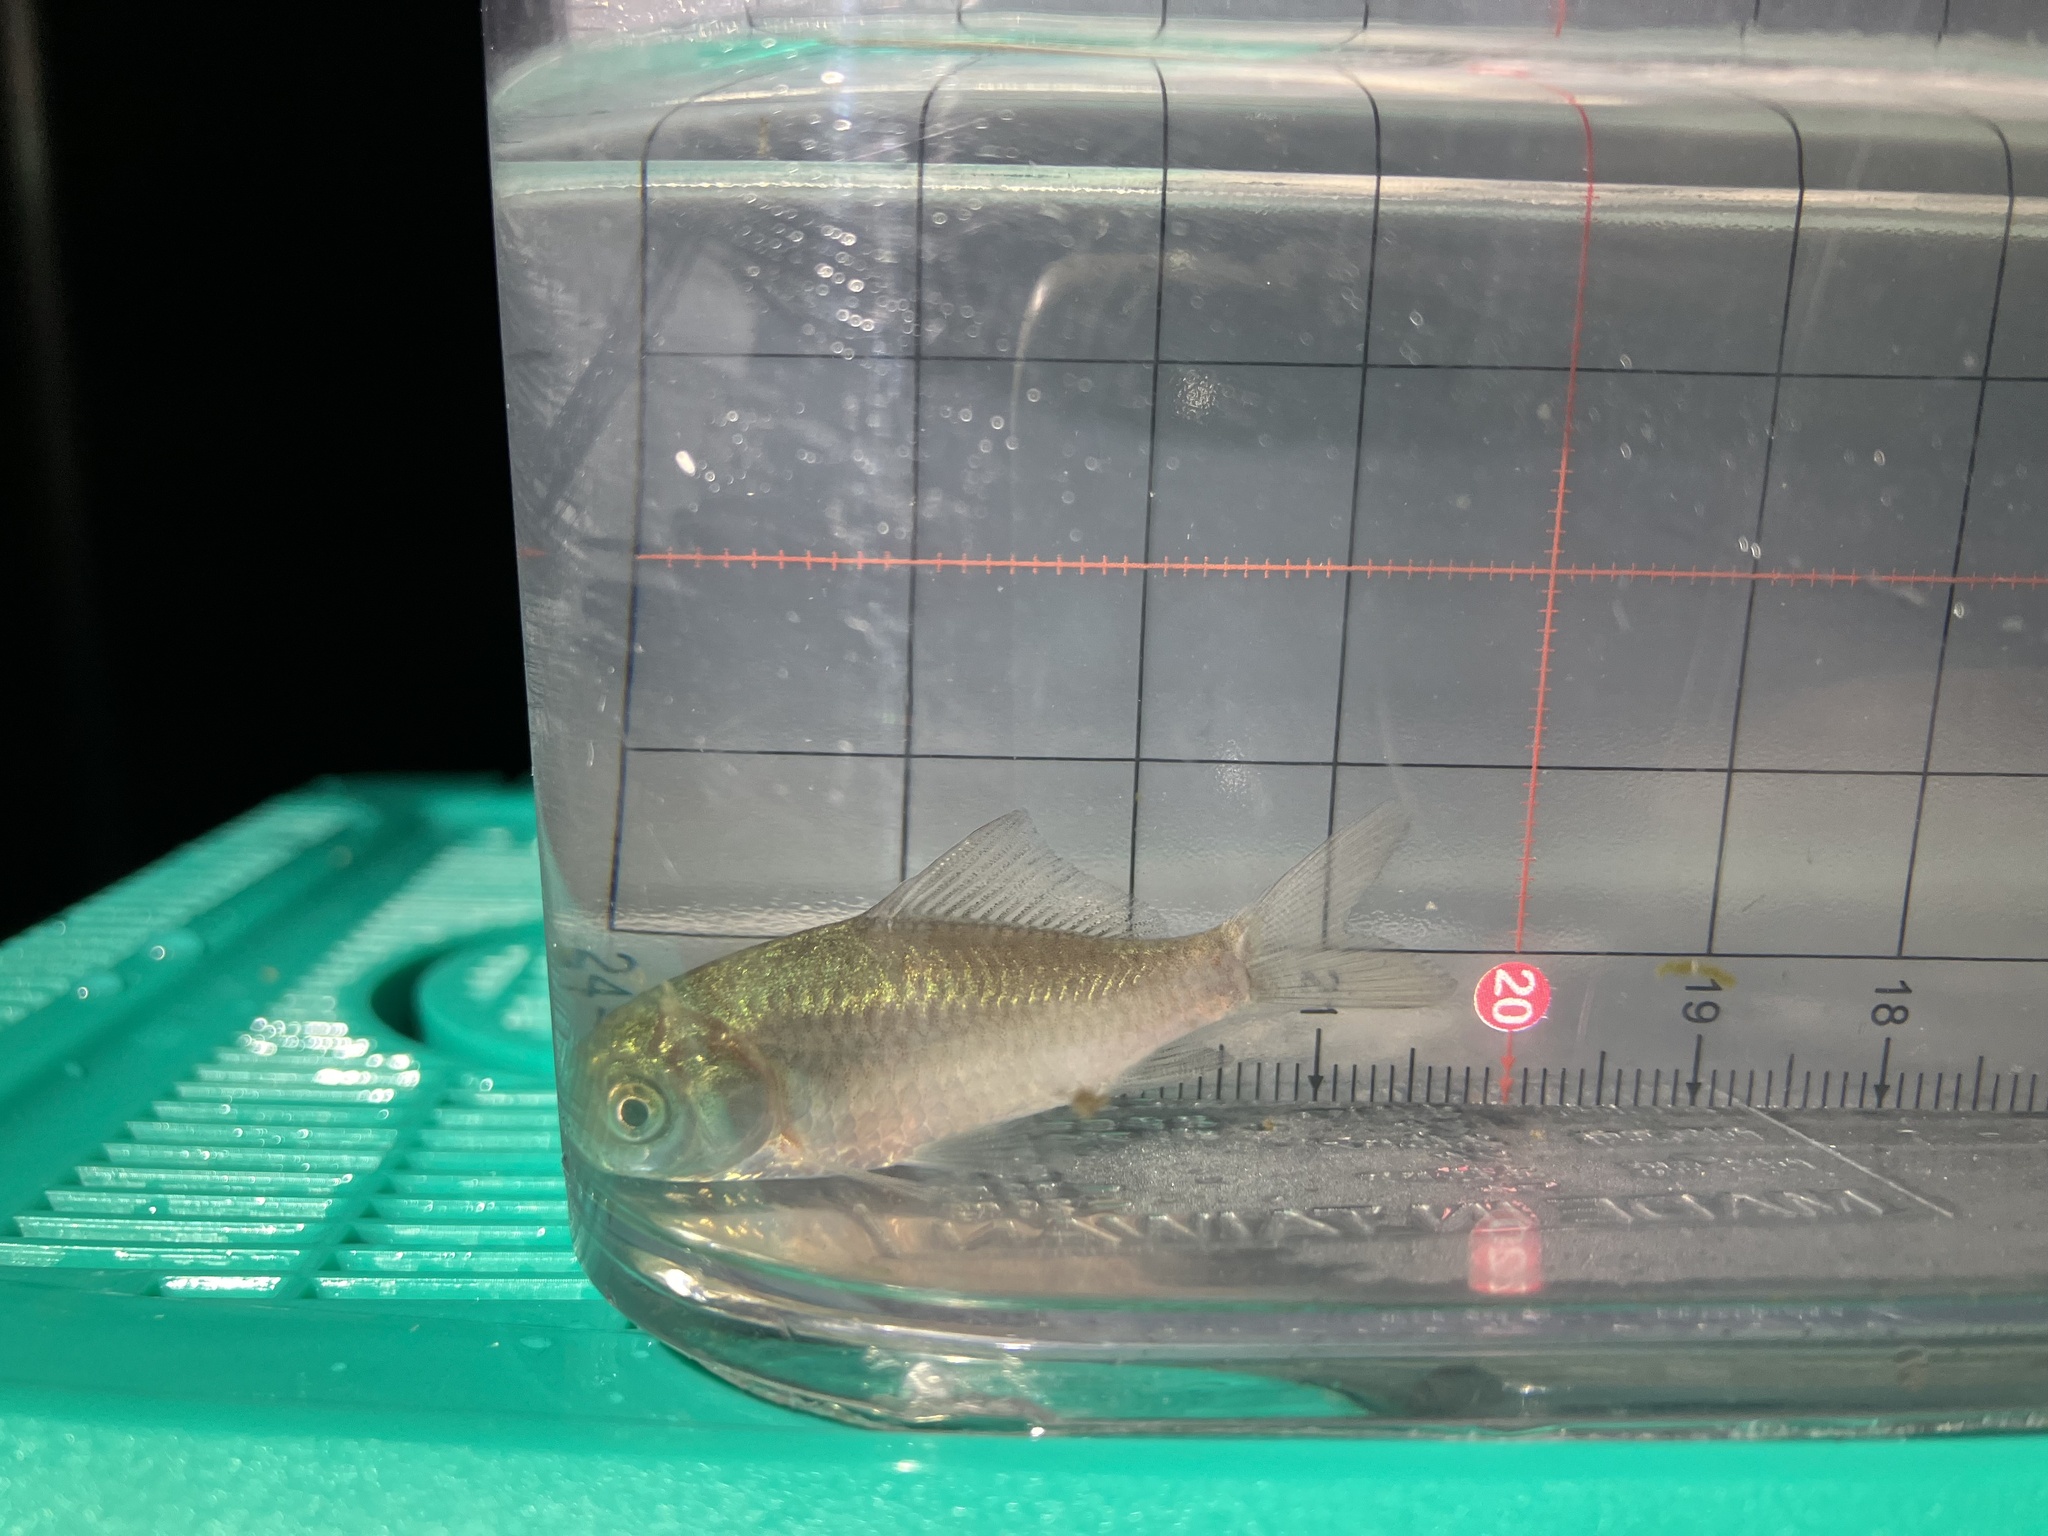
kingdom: Animalia
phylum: Chordata
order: Cypriniformes
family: Cyprinidae
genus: Carassius
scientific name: Carassius auratus
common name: Goldfish
